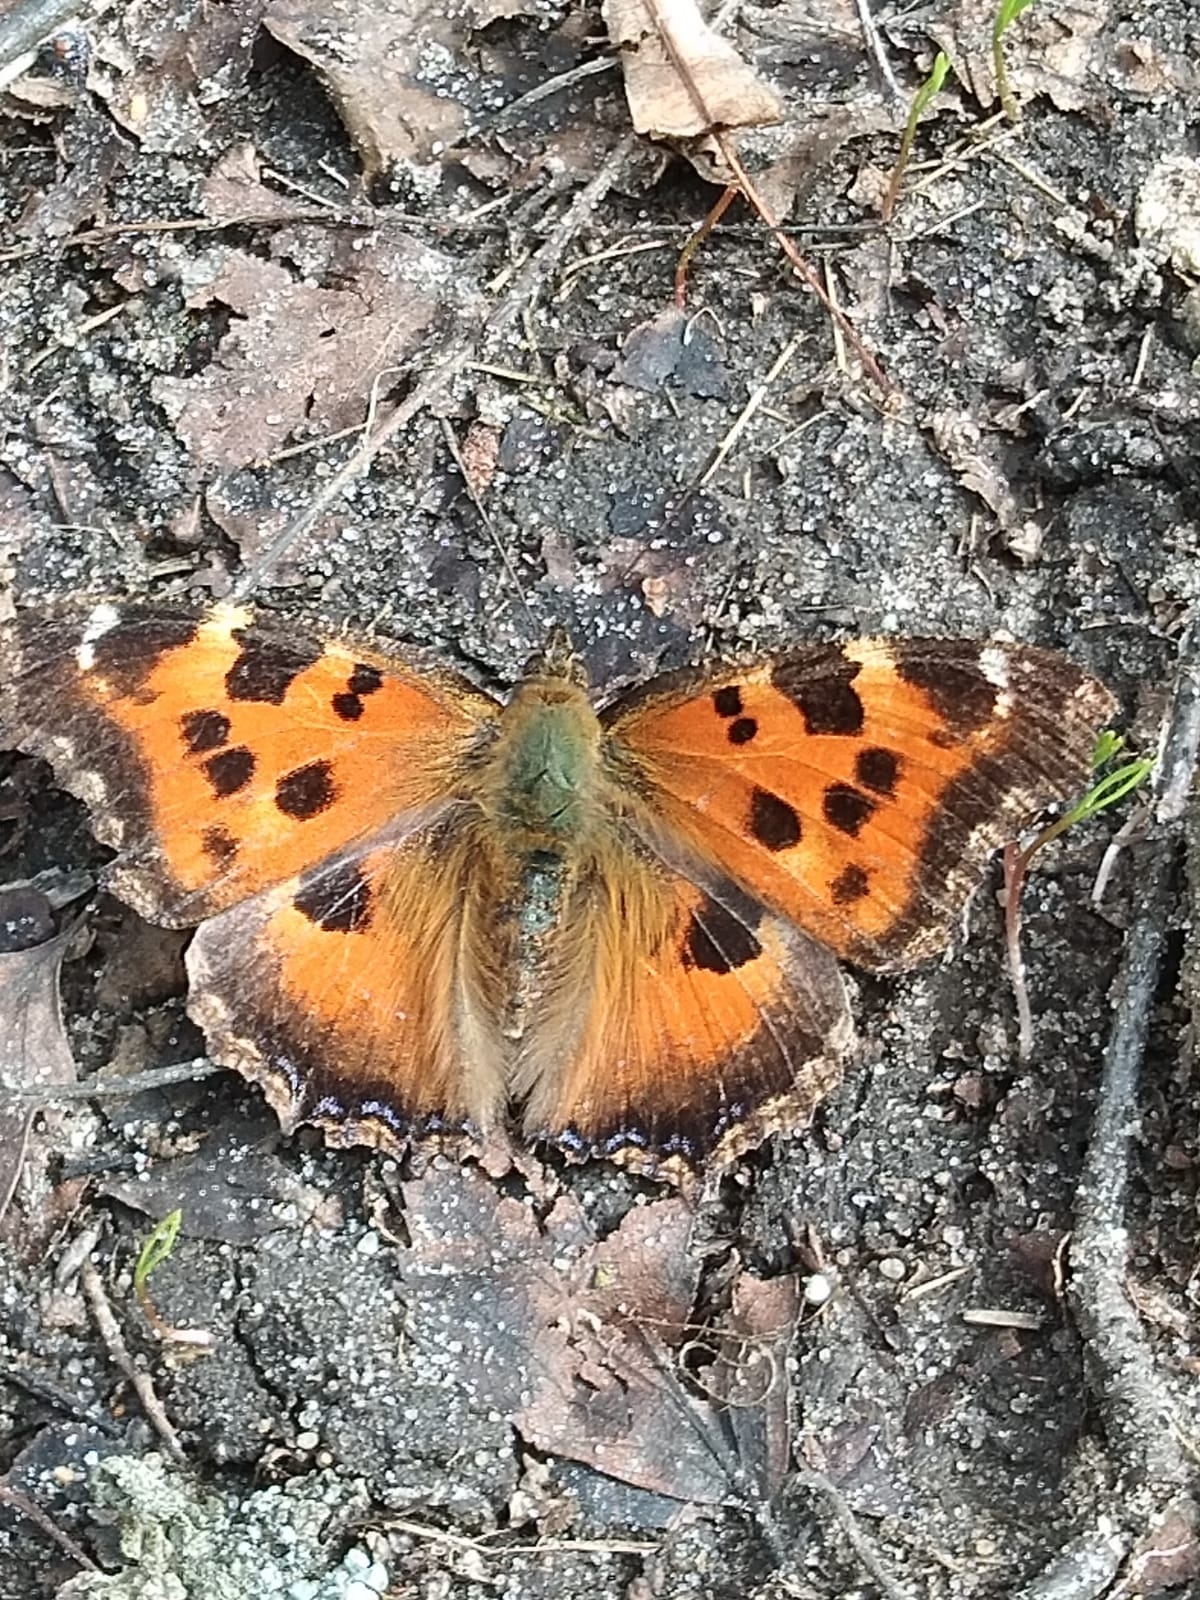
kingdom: Animalia
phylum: Arthropoda
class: Insecta
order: Lepidoptera
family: Nymphalidae
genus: Nymphalis
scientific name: Nymphalis xanthomelas
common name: Scarce tortoiseshell
